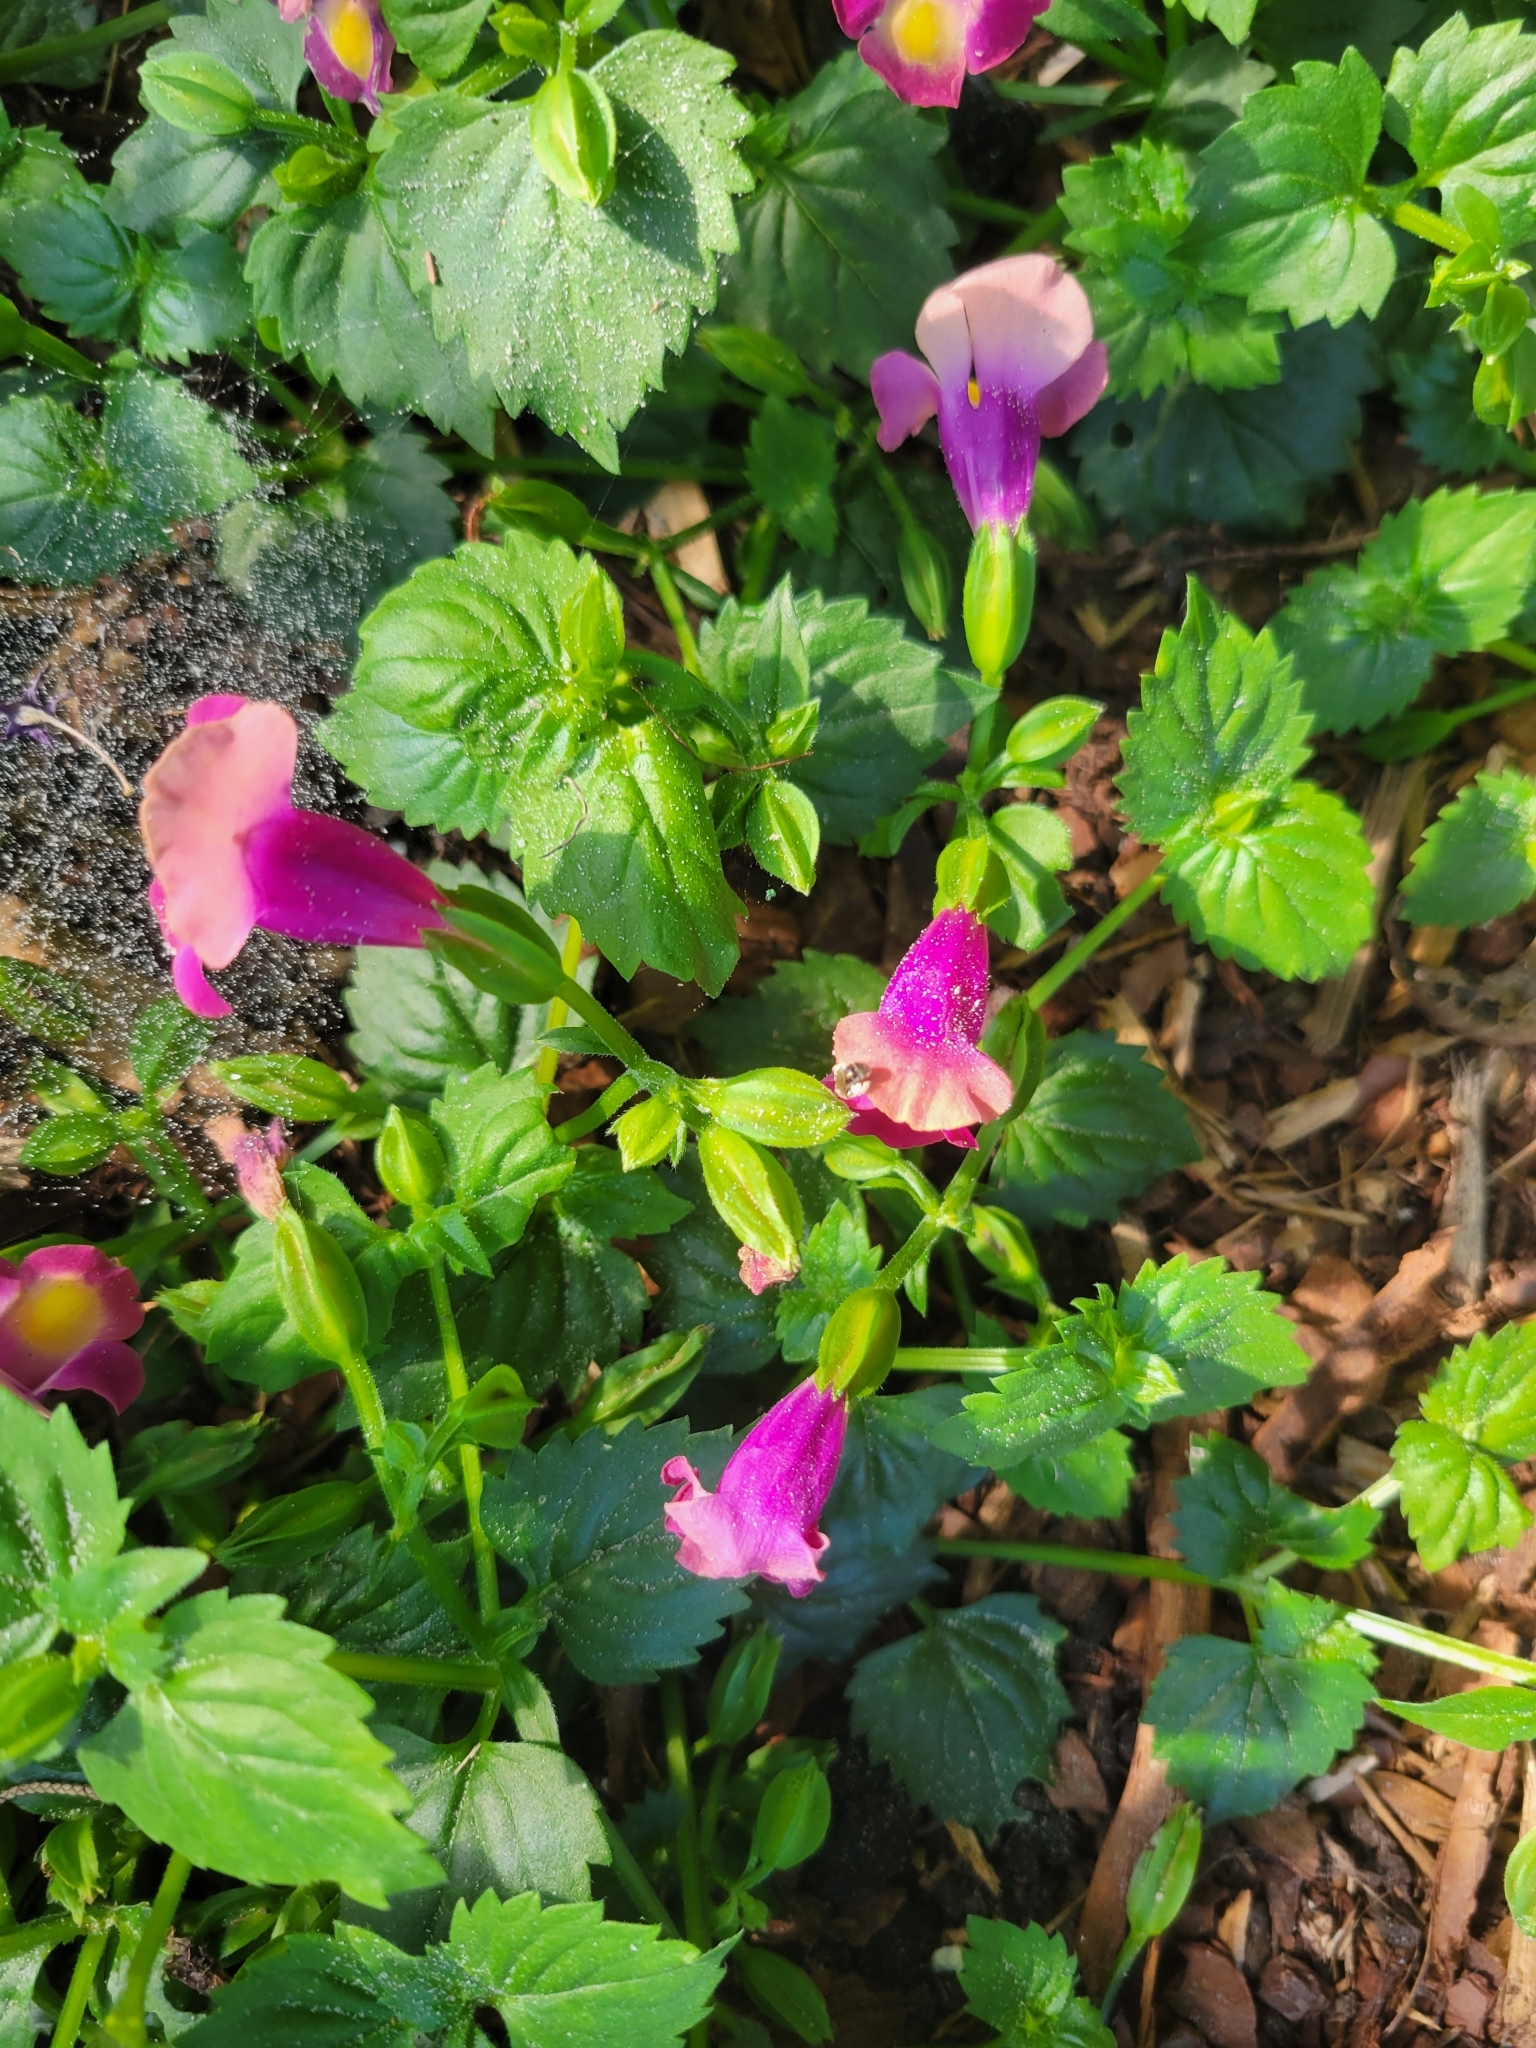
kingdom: Plantae
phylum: Tracheophyta
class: Magnoliopsida
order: Lamiales
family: Linderniaceae
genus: Torenia
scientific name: Torenia fournieri
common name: Bluewings
